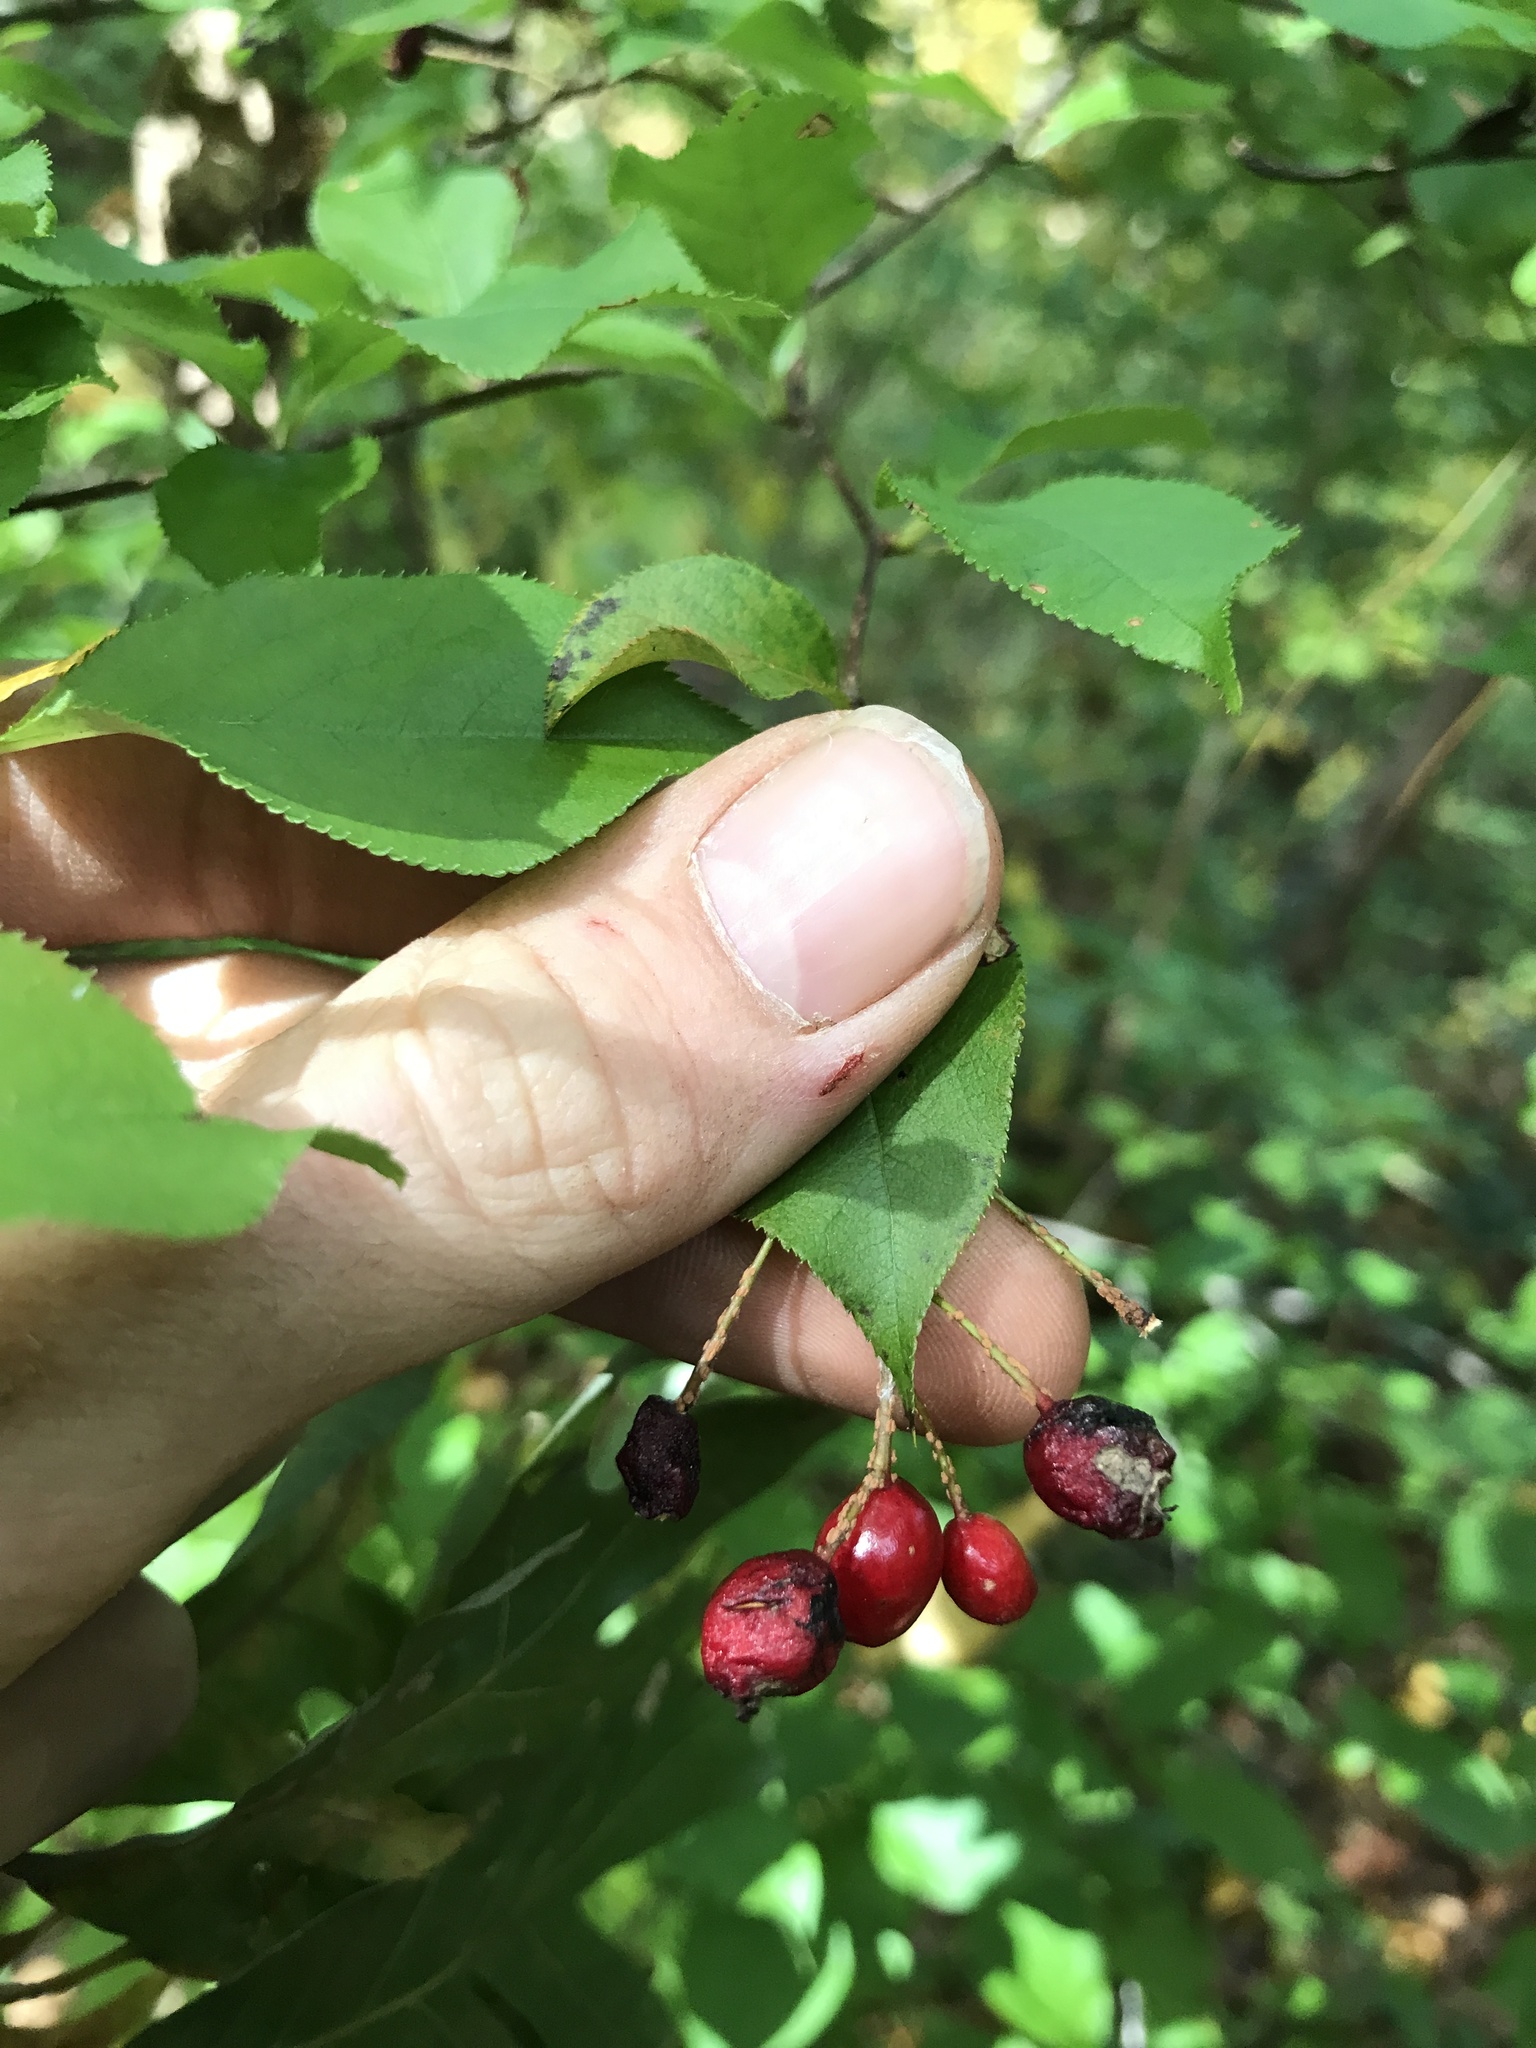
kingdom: Plantae
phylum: Tracheophyta
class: Magnoliopsida
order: Rosales
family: Rosaceae
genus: Pourthiaea
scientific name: Pourthiaea villosa
